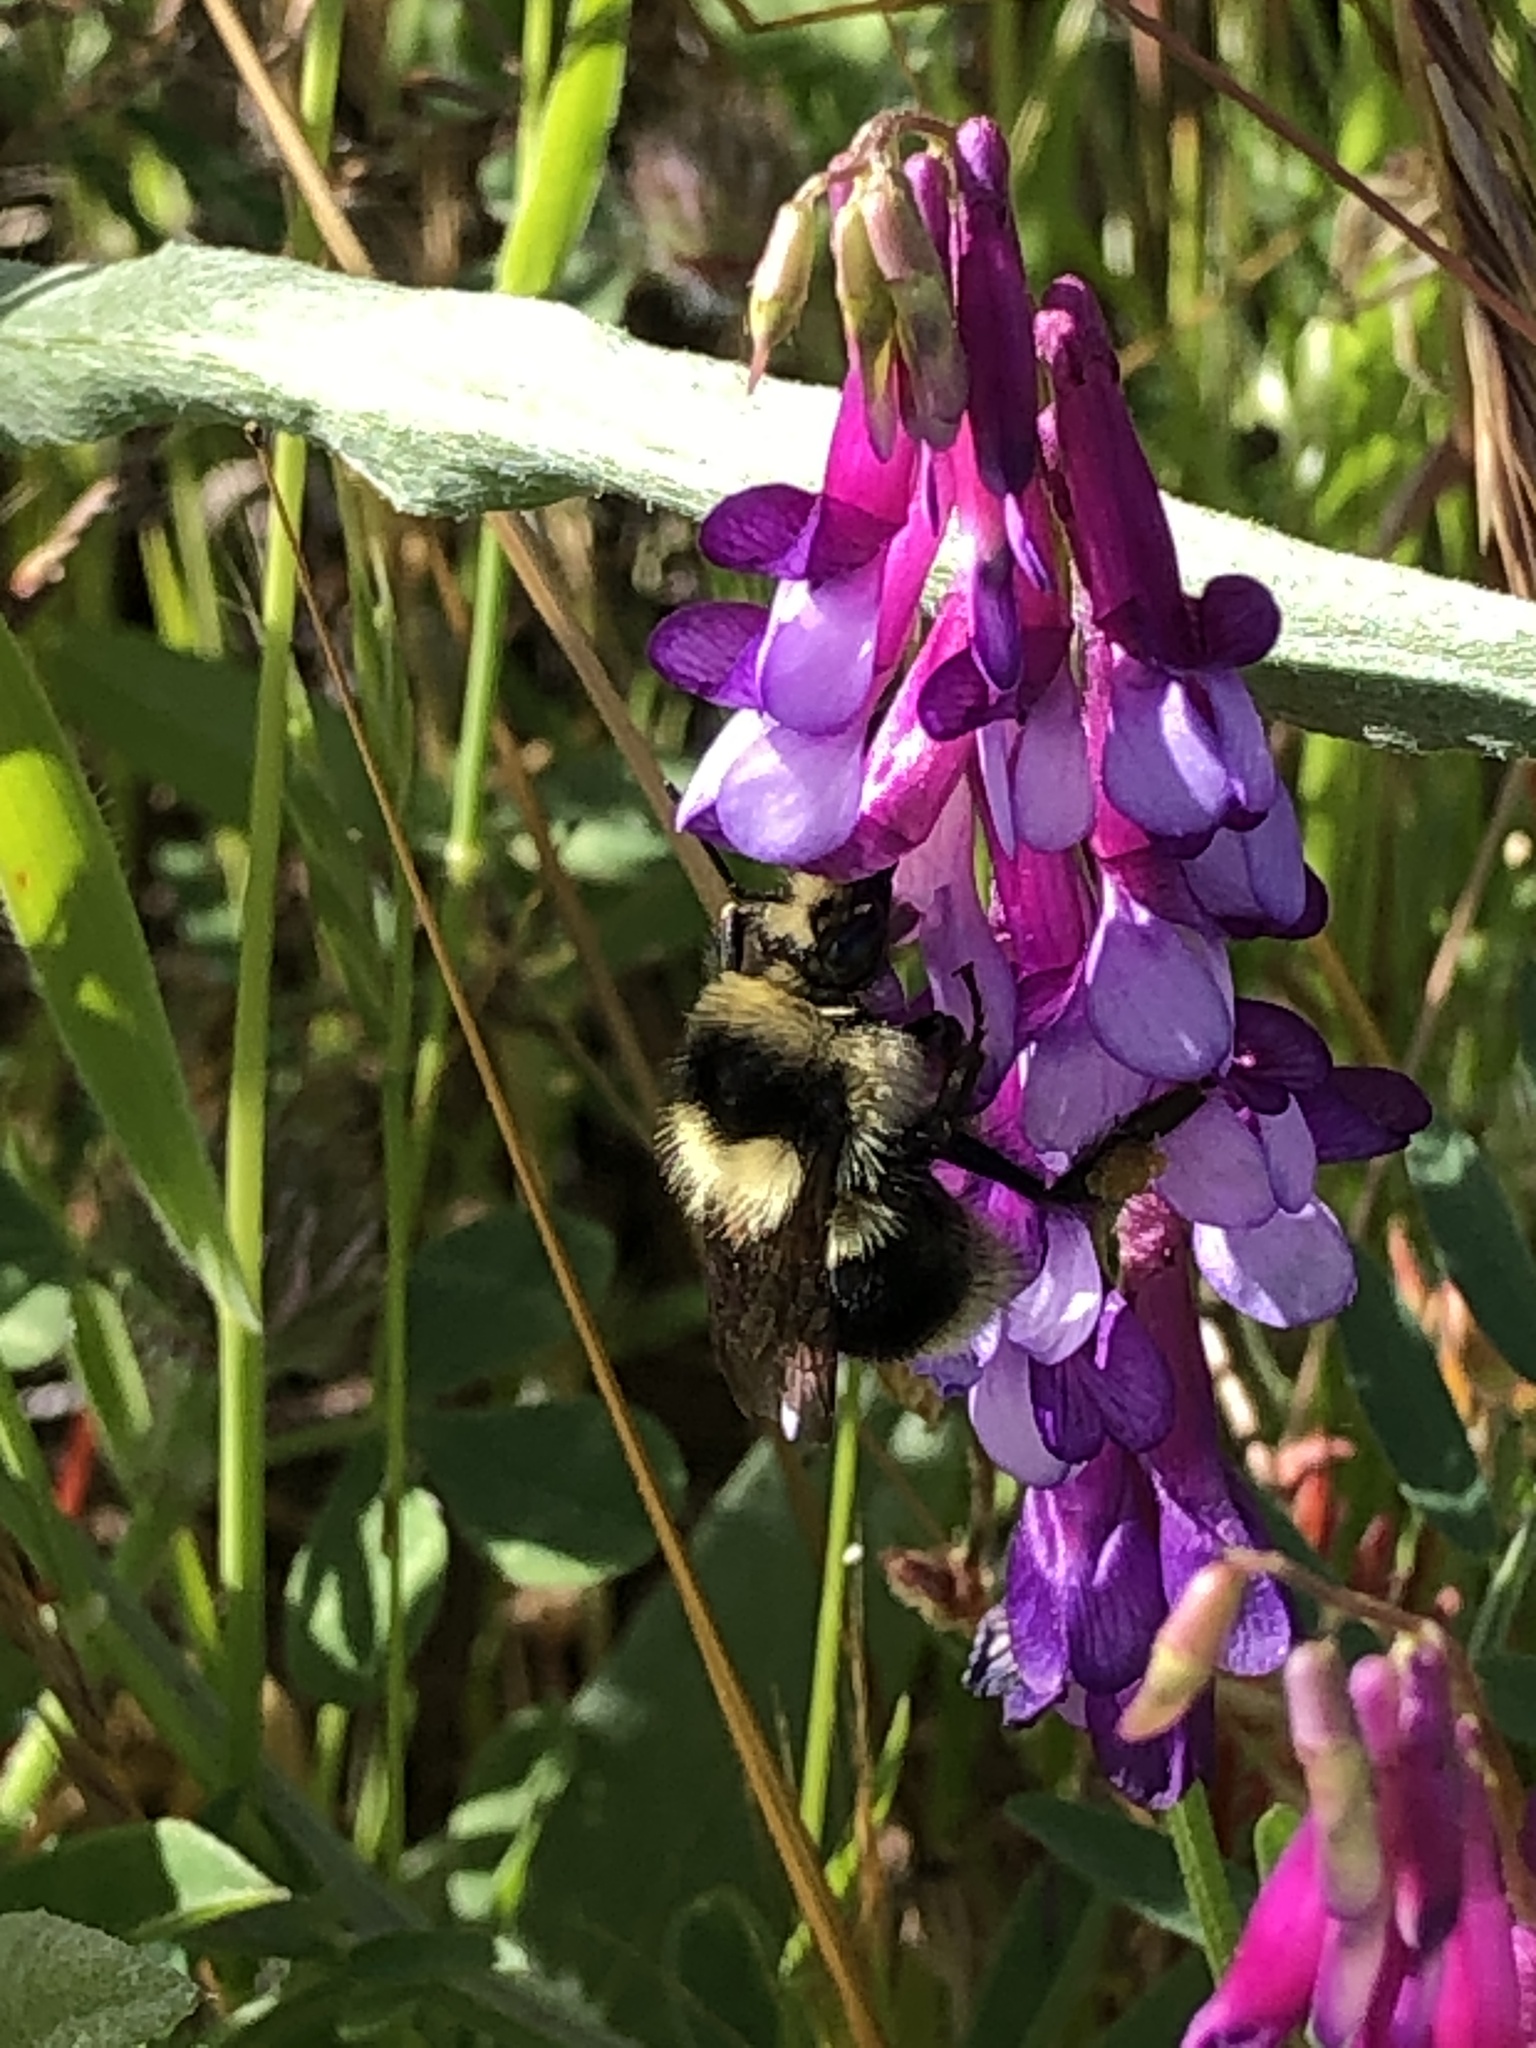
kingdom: Animalia
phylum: Arthropoda
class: Insecta
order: Hymenoptera
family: Apidae
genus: Bombus
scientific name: Bombus melanopygus
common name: Black tail bumble bee
